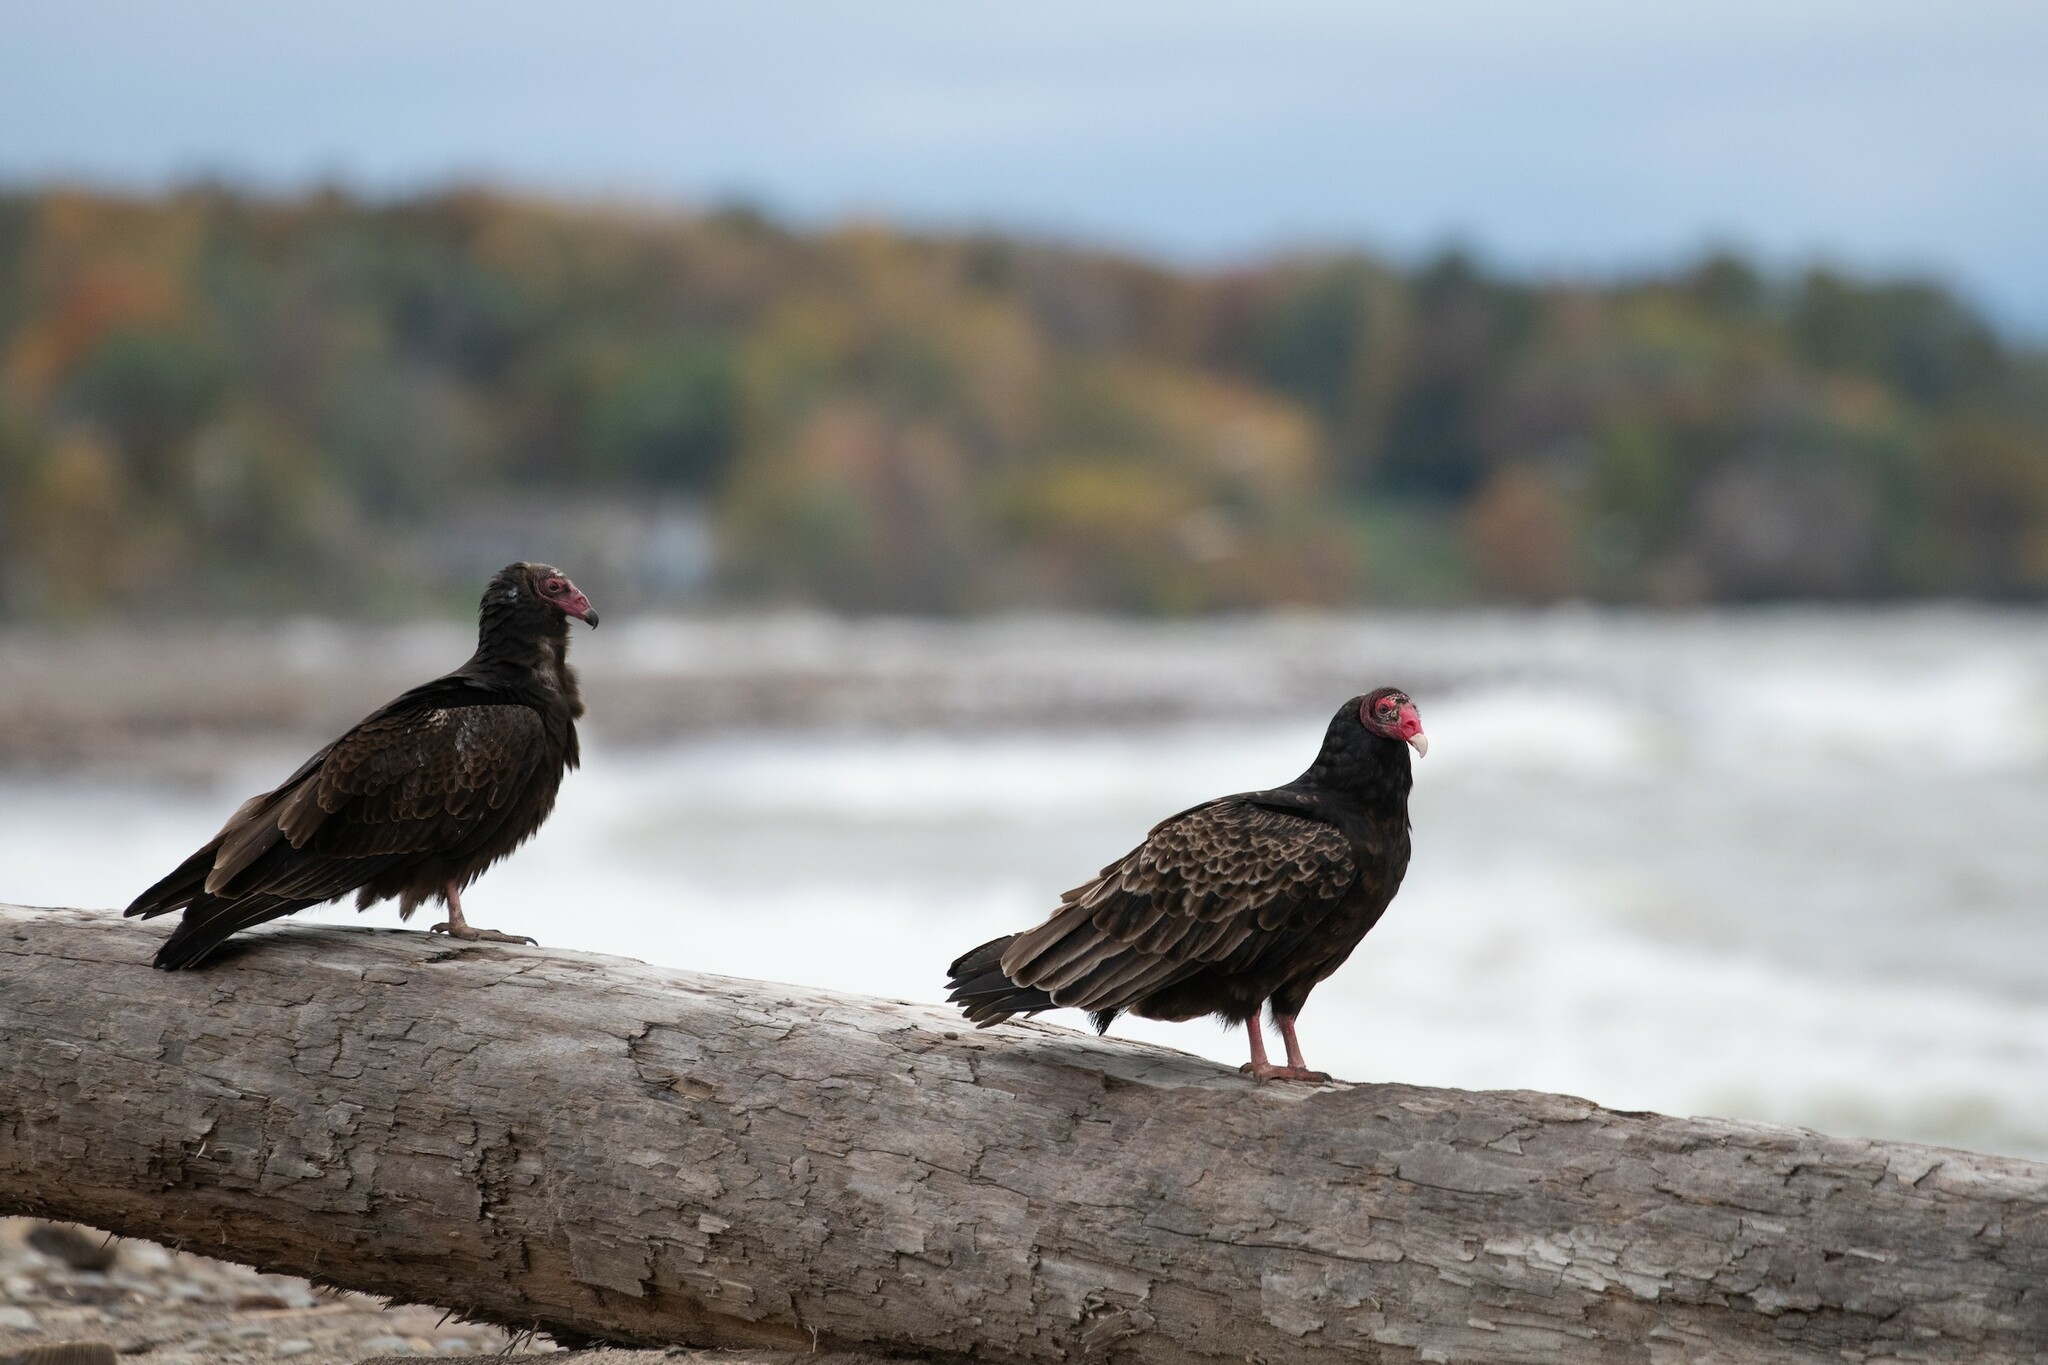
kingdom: Animalia
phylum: Chordata
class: Aves
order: Accipitriformes
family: Cathartidae
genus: Cathartes
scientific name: Cathartes aura
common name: Turkey vulture
